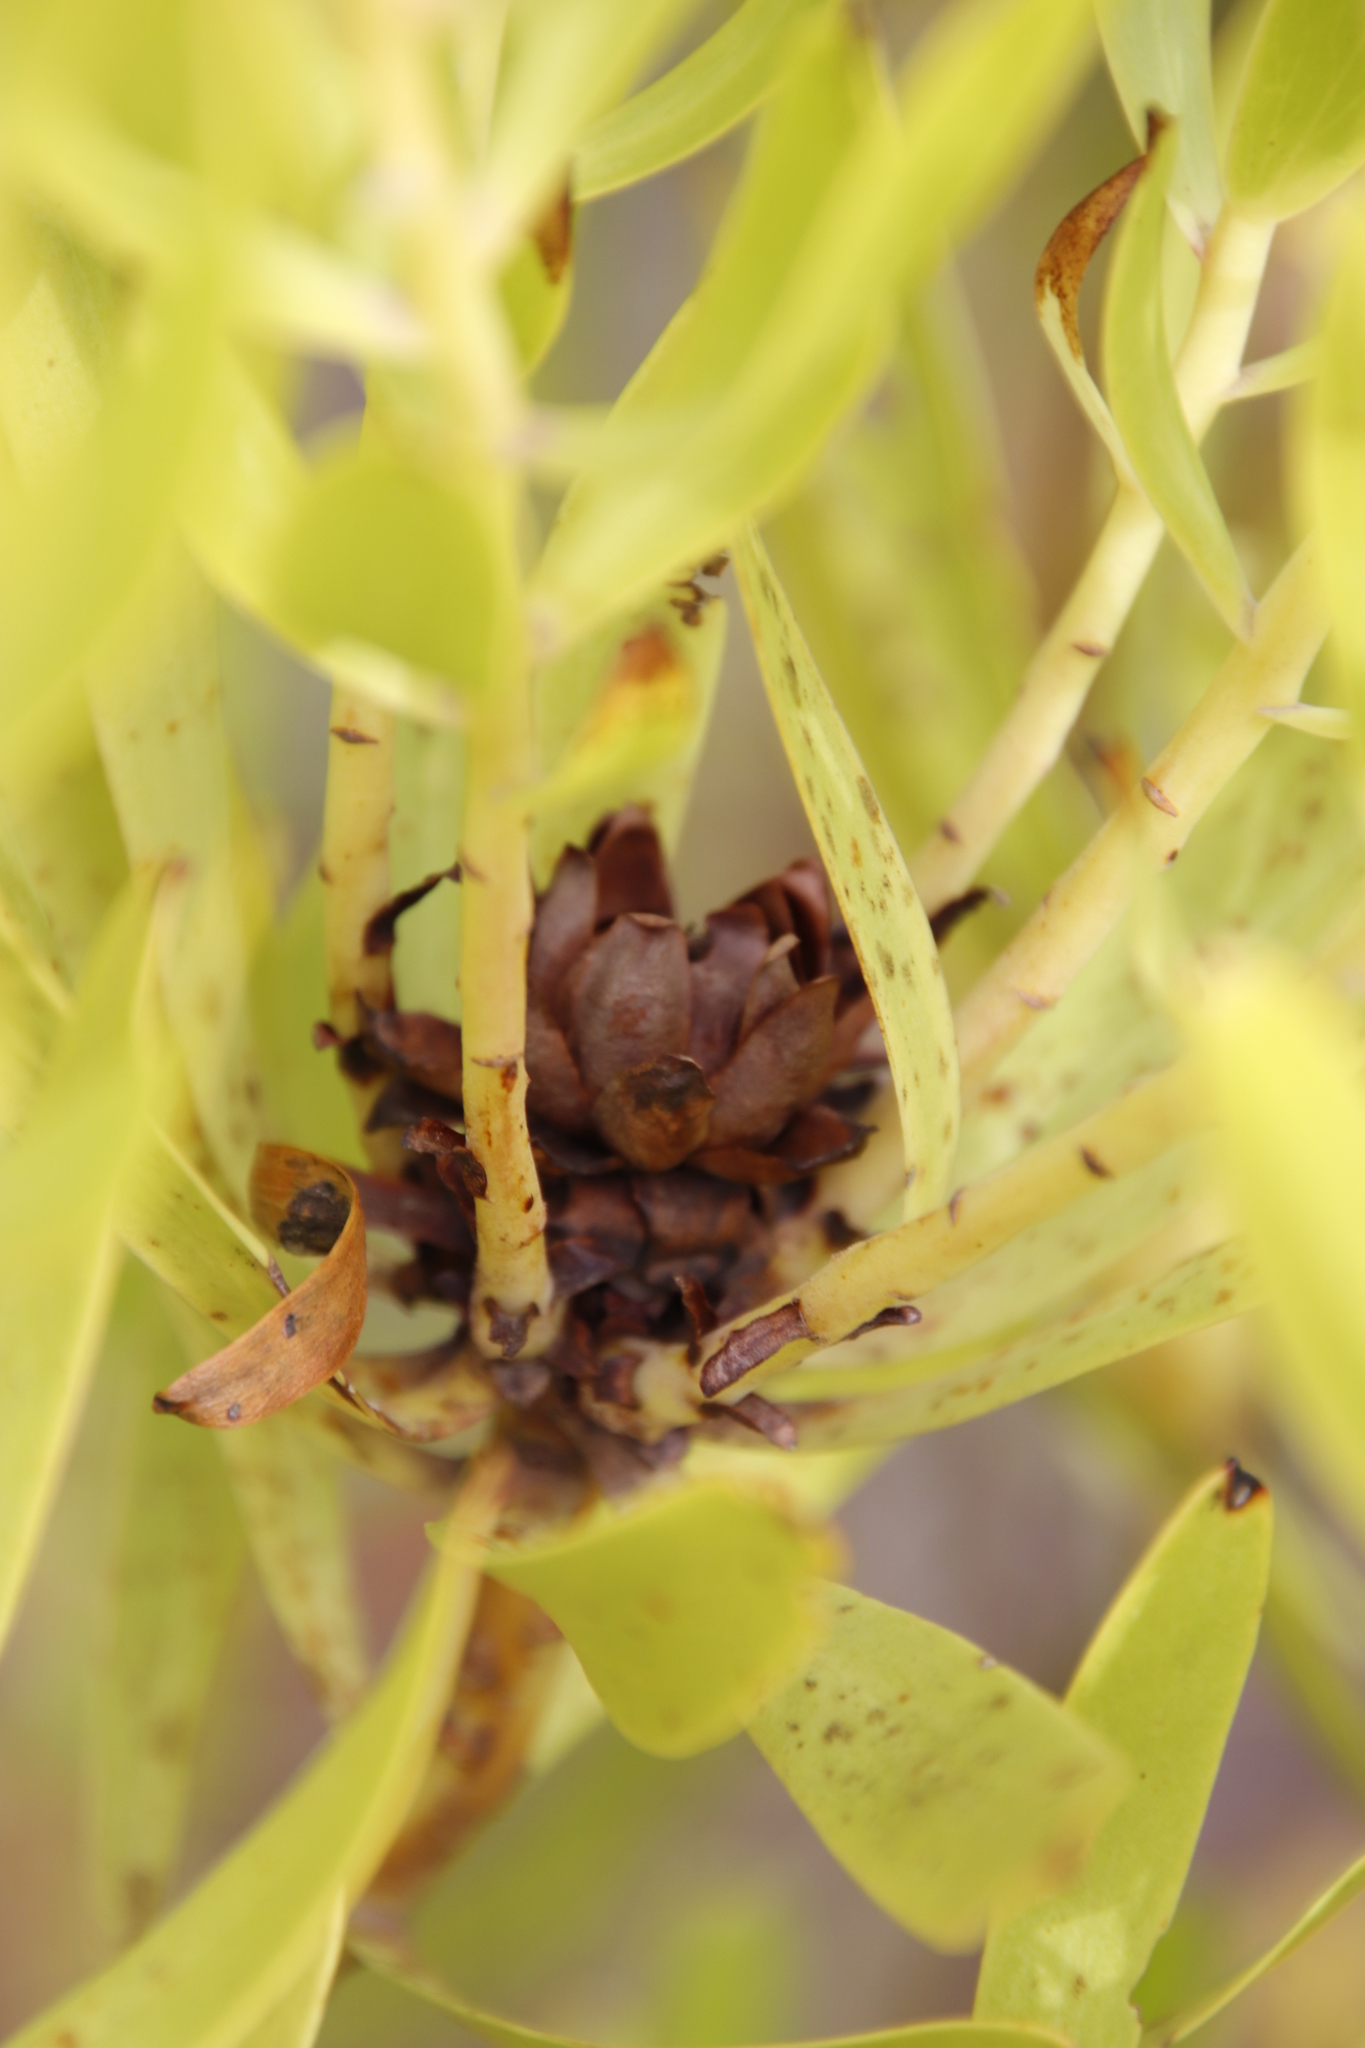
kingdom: Plantae
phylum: Tracheophyta
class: Magnoliopsida
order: Proteales
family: Proteaceae
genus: Leucadendron
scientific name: Leucadendron microcephalum
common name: Oilbract conebush
